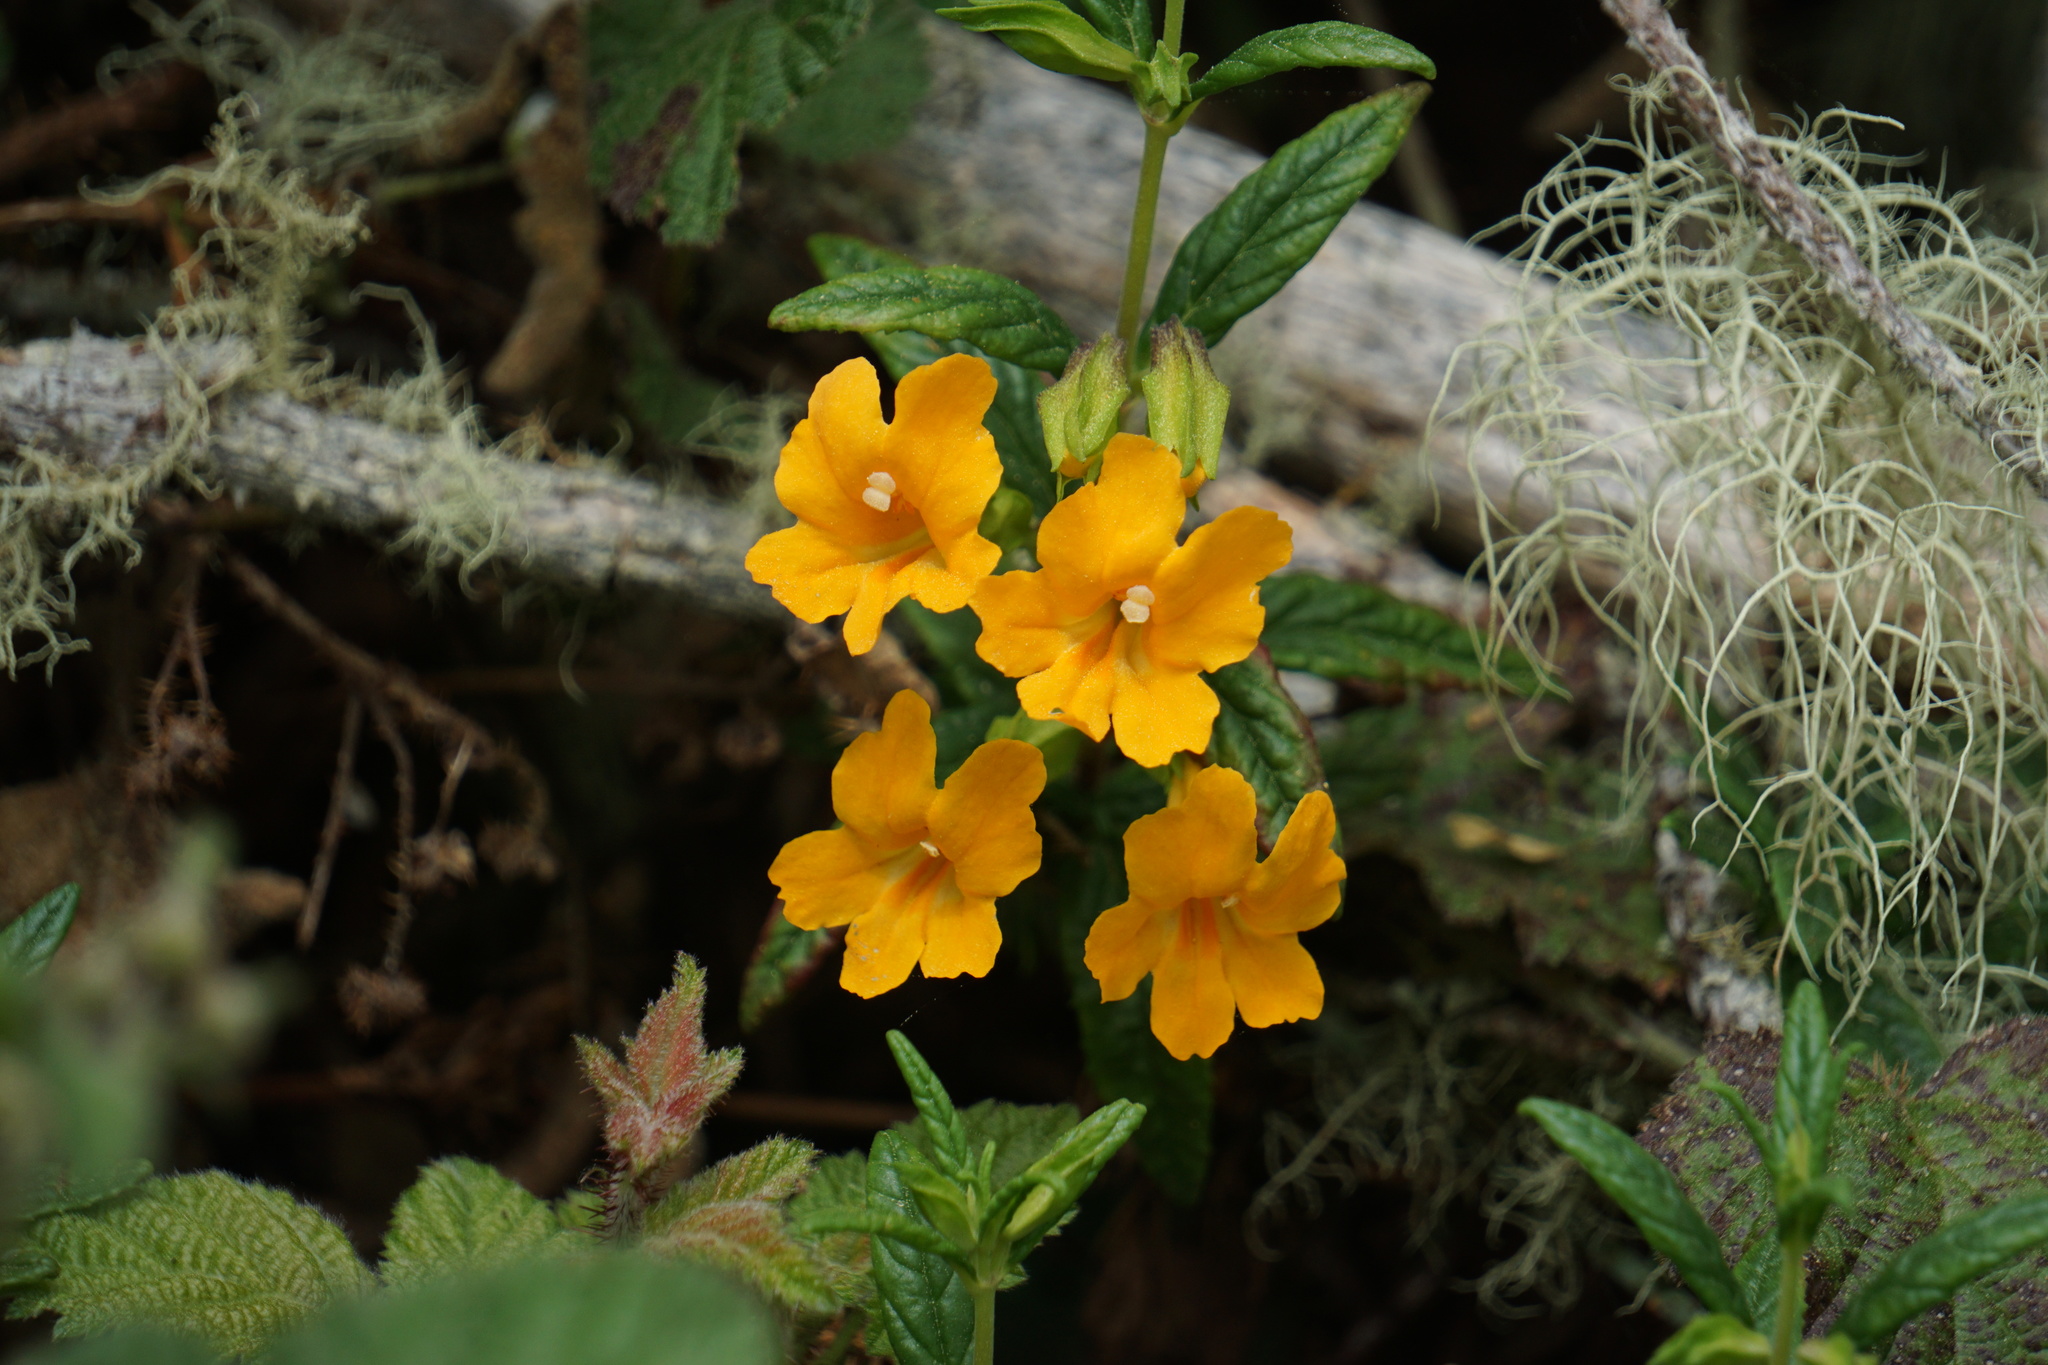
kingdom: Plantae
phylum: Tracheophyta
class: Magnoliopsida
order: Lamiales
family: Phrymaceae
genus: Diplacus
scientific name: Diplacus aurantiacus
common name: Bush monkey-flower
